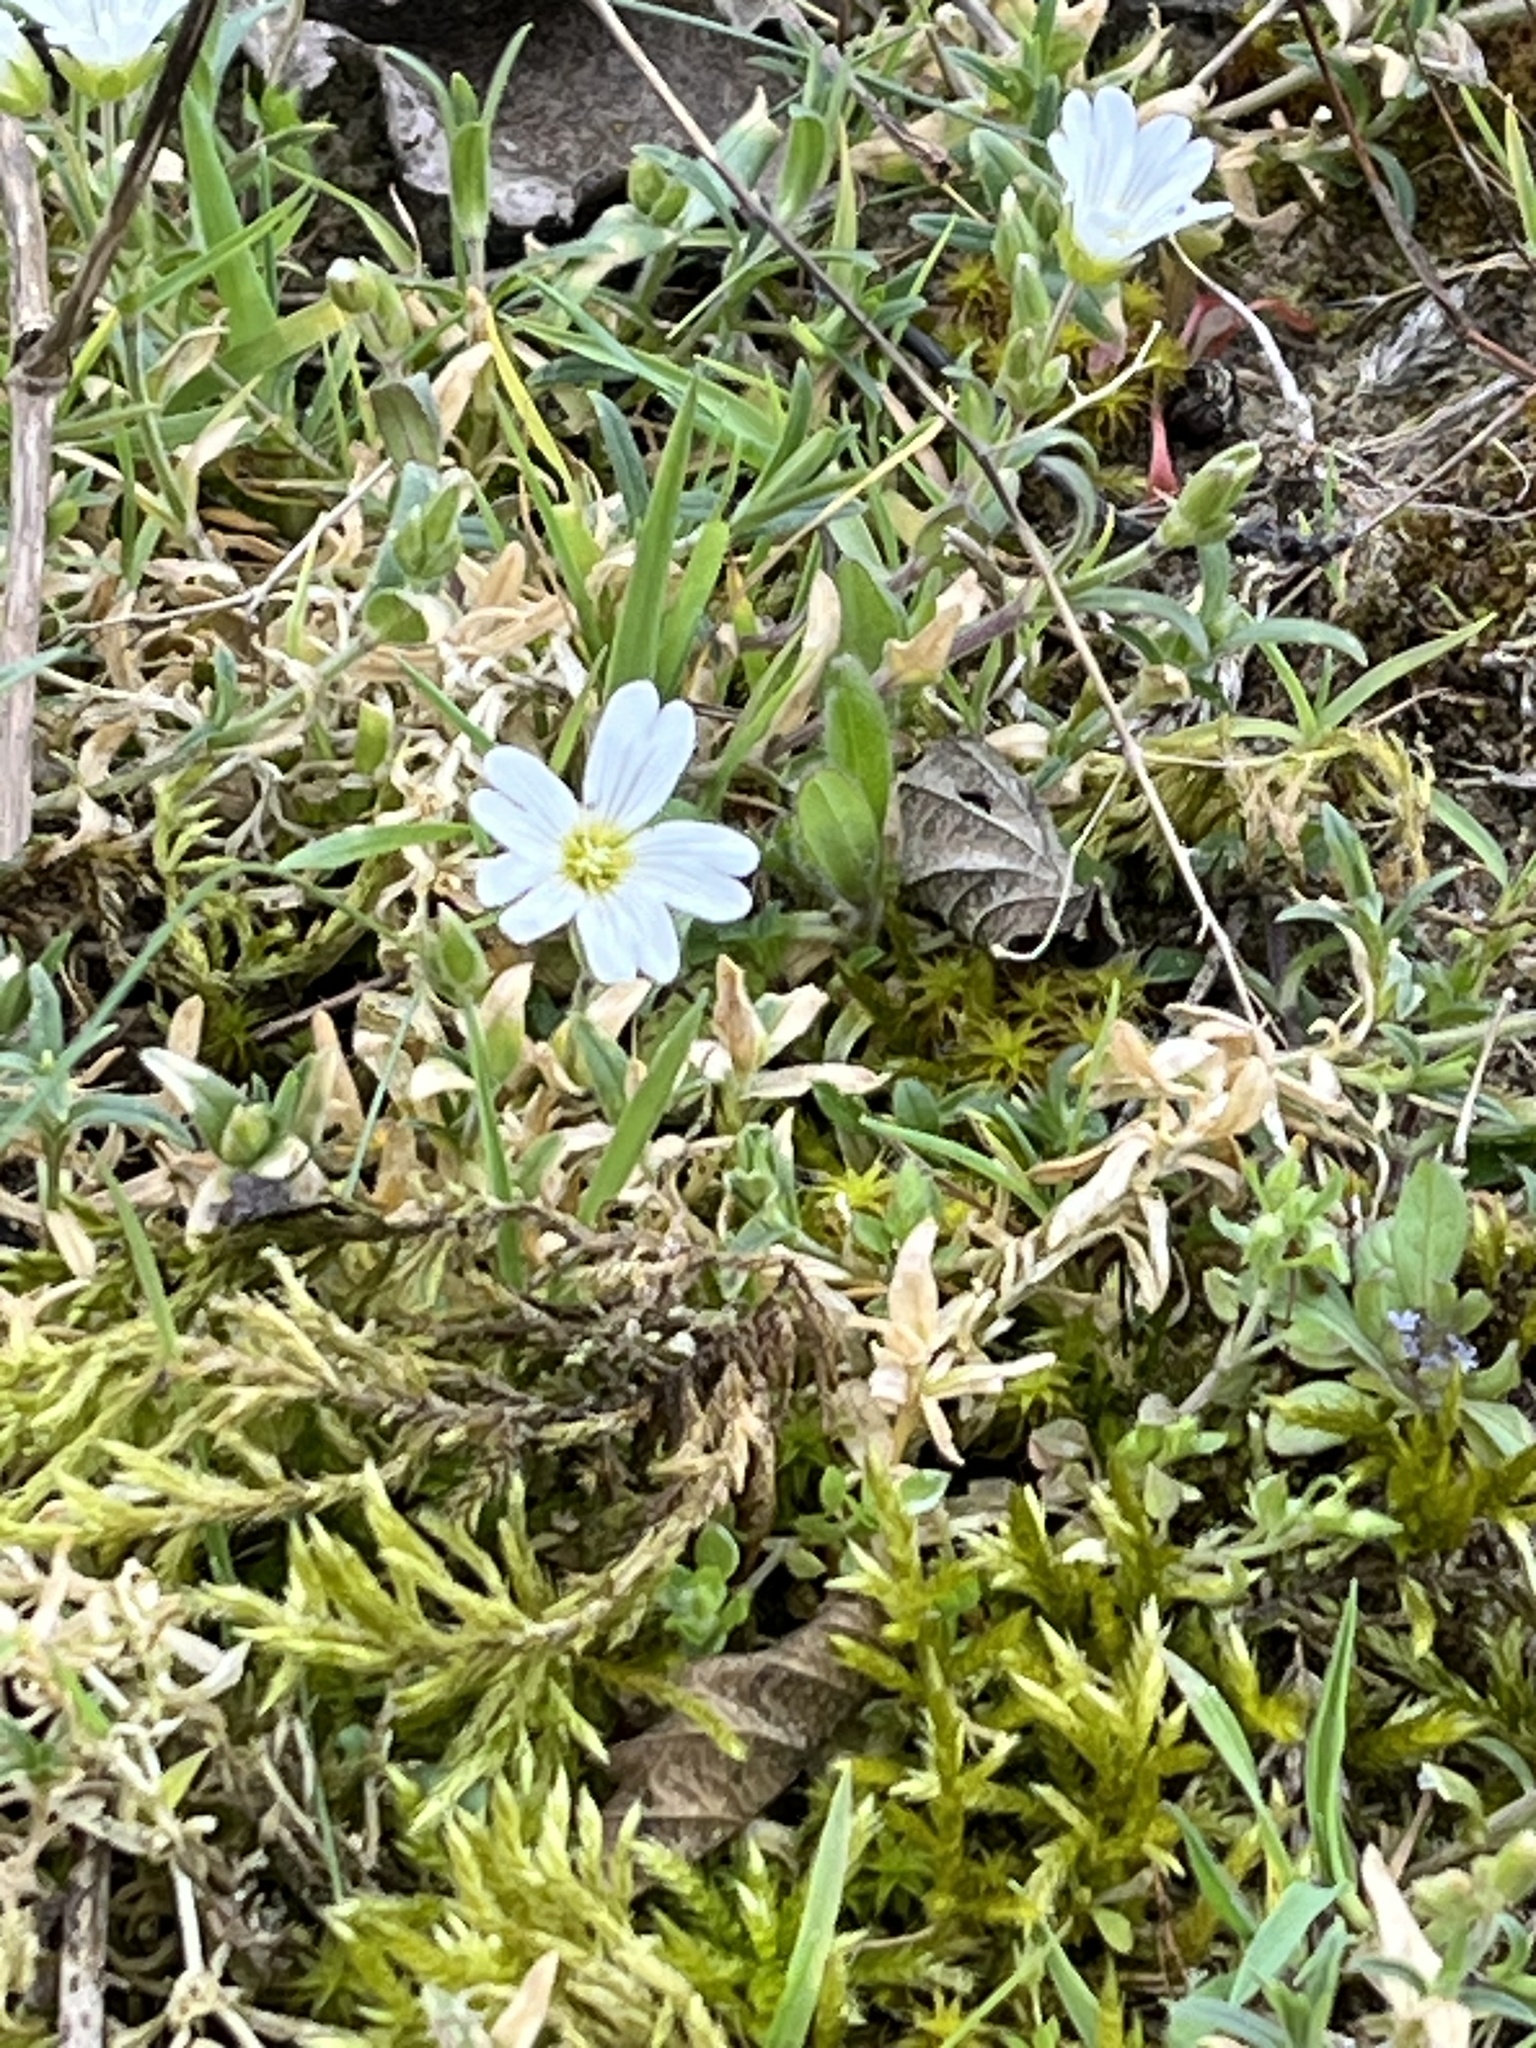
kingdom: Plantae
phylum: Tracheophyta
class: Magnoliopsida
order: Caryophyllales
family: Caryophyllaceae
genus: Cerastium
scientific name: Cerastium arvense
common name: Field mouse-ear
